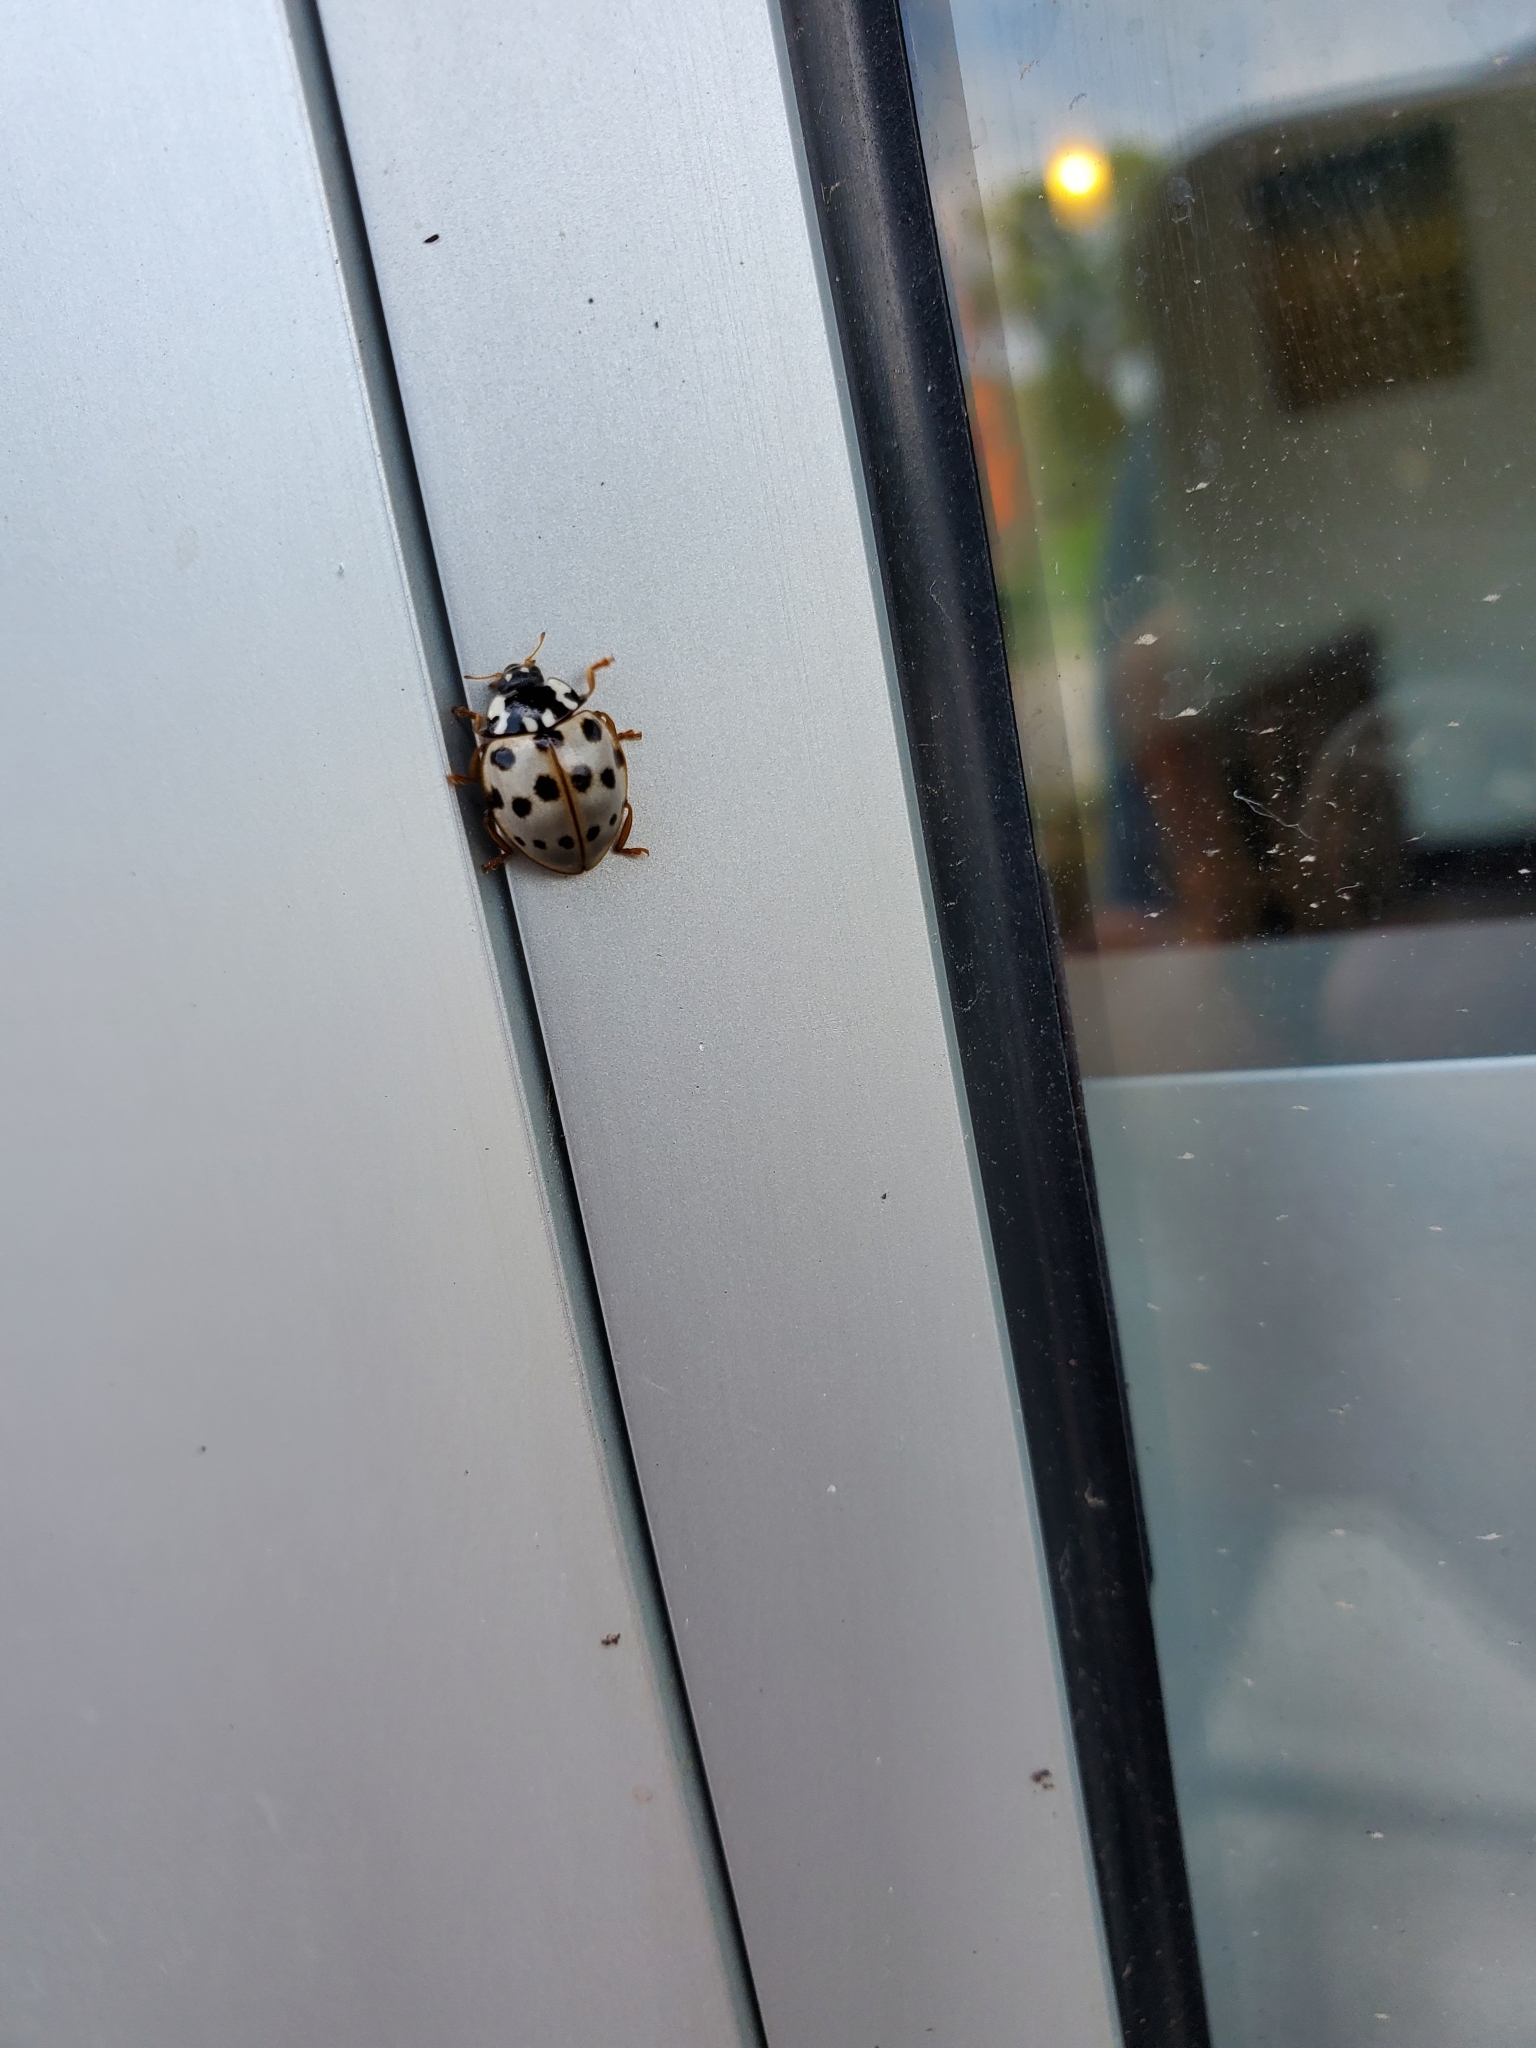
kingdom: Animalia
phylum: Arthropoda
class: Insecta
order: Coleoptera
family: Coccinellidae
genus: Anatis
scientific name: Anatis labiculata
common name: Fifteen-spotted lady beetle
